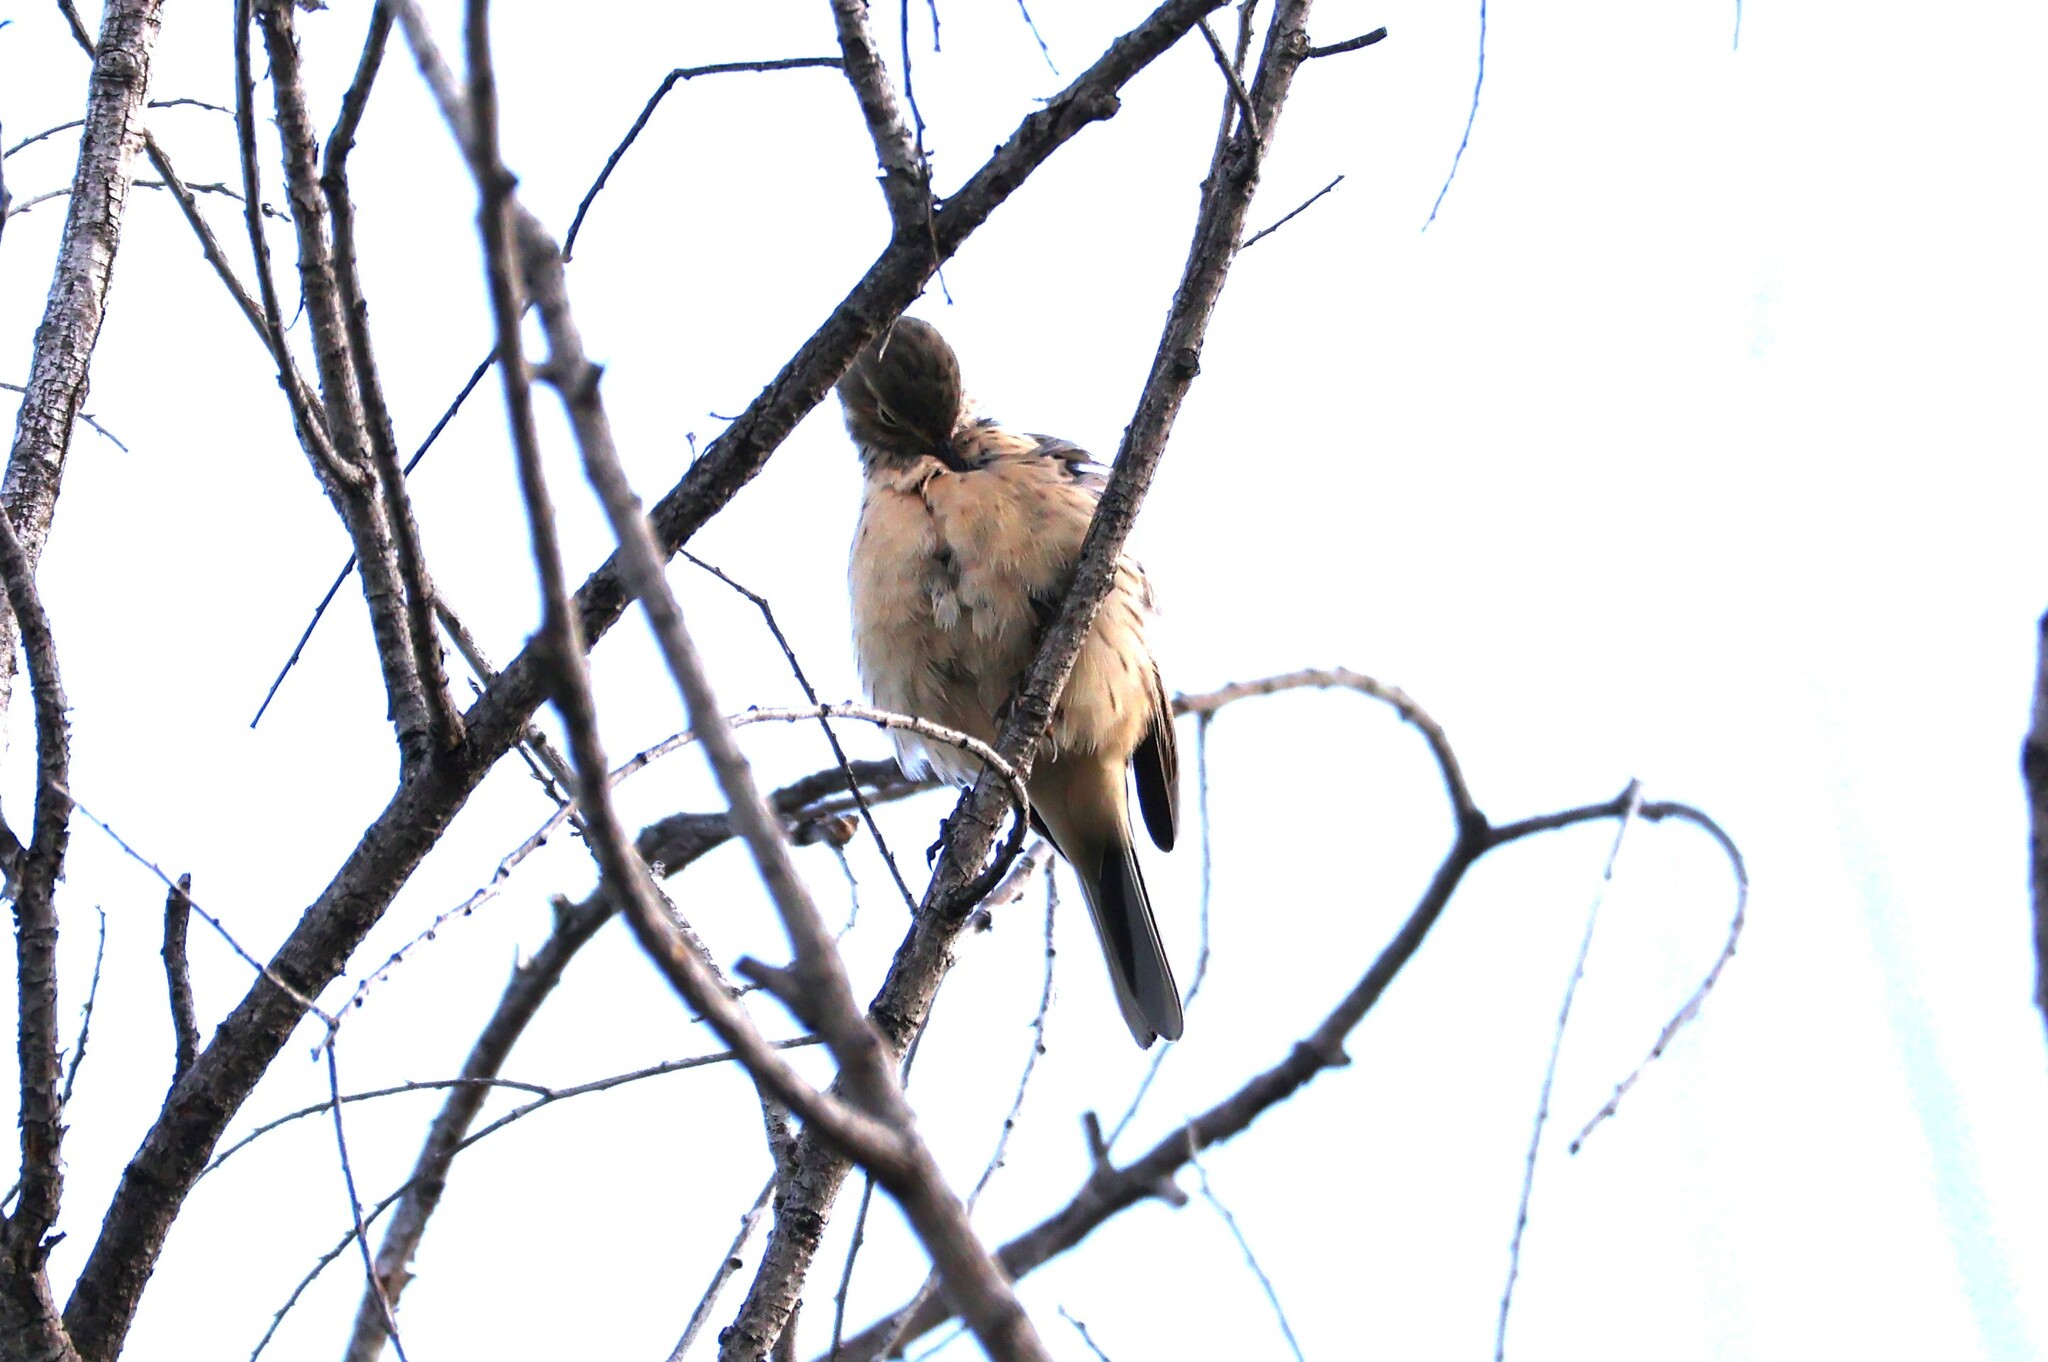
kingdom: Animalia
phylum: Chordata
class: Aves
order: Passeriformes
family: Motacillidae
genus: Anthus
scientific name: Anthus rubescens
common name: Buff-bellied pipit
